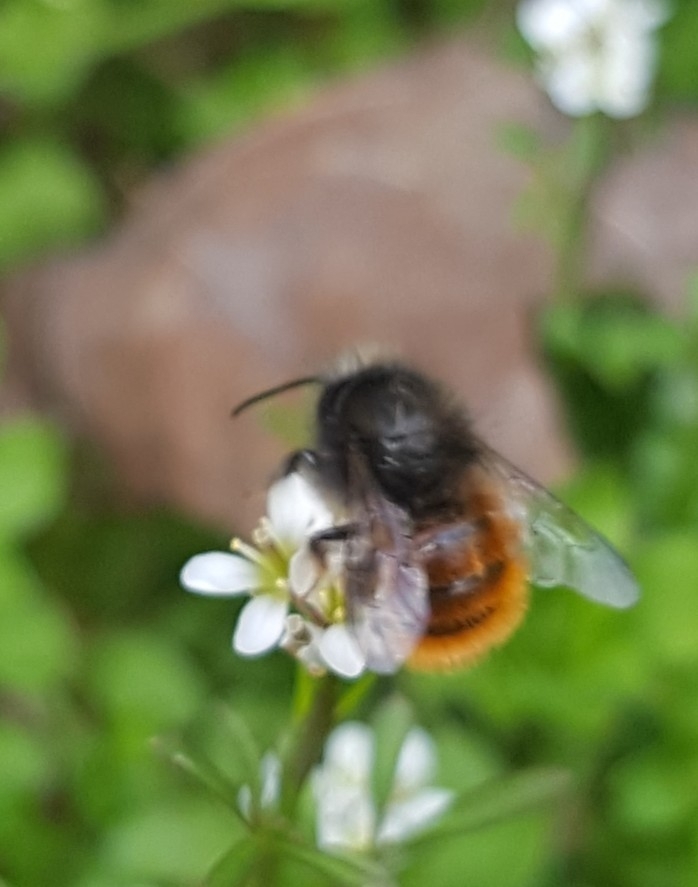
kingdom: Animalia
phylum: Arthropoda
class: Insecta
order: Hymenoptera
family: Megachilidae
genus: Osmia
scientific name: Osmia cornuta
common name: Mason bee
